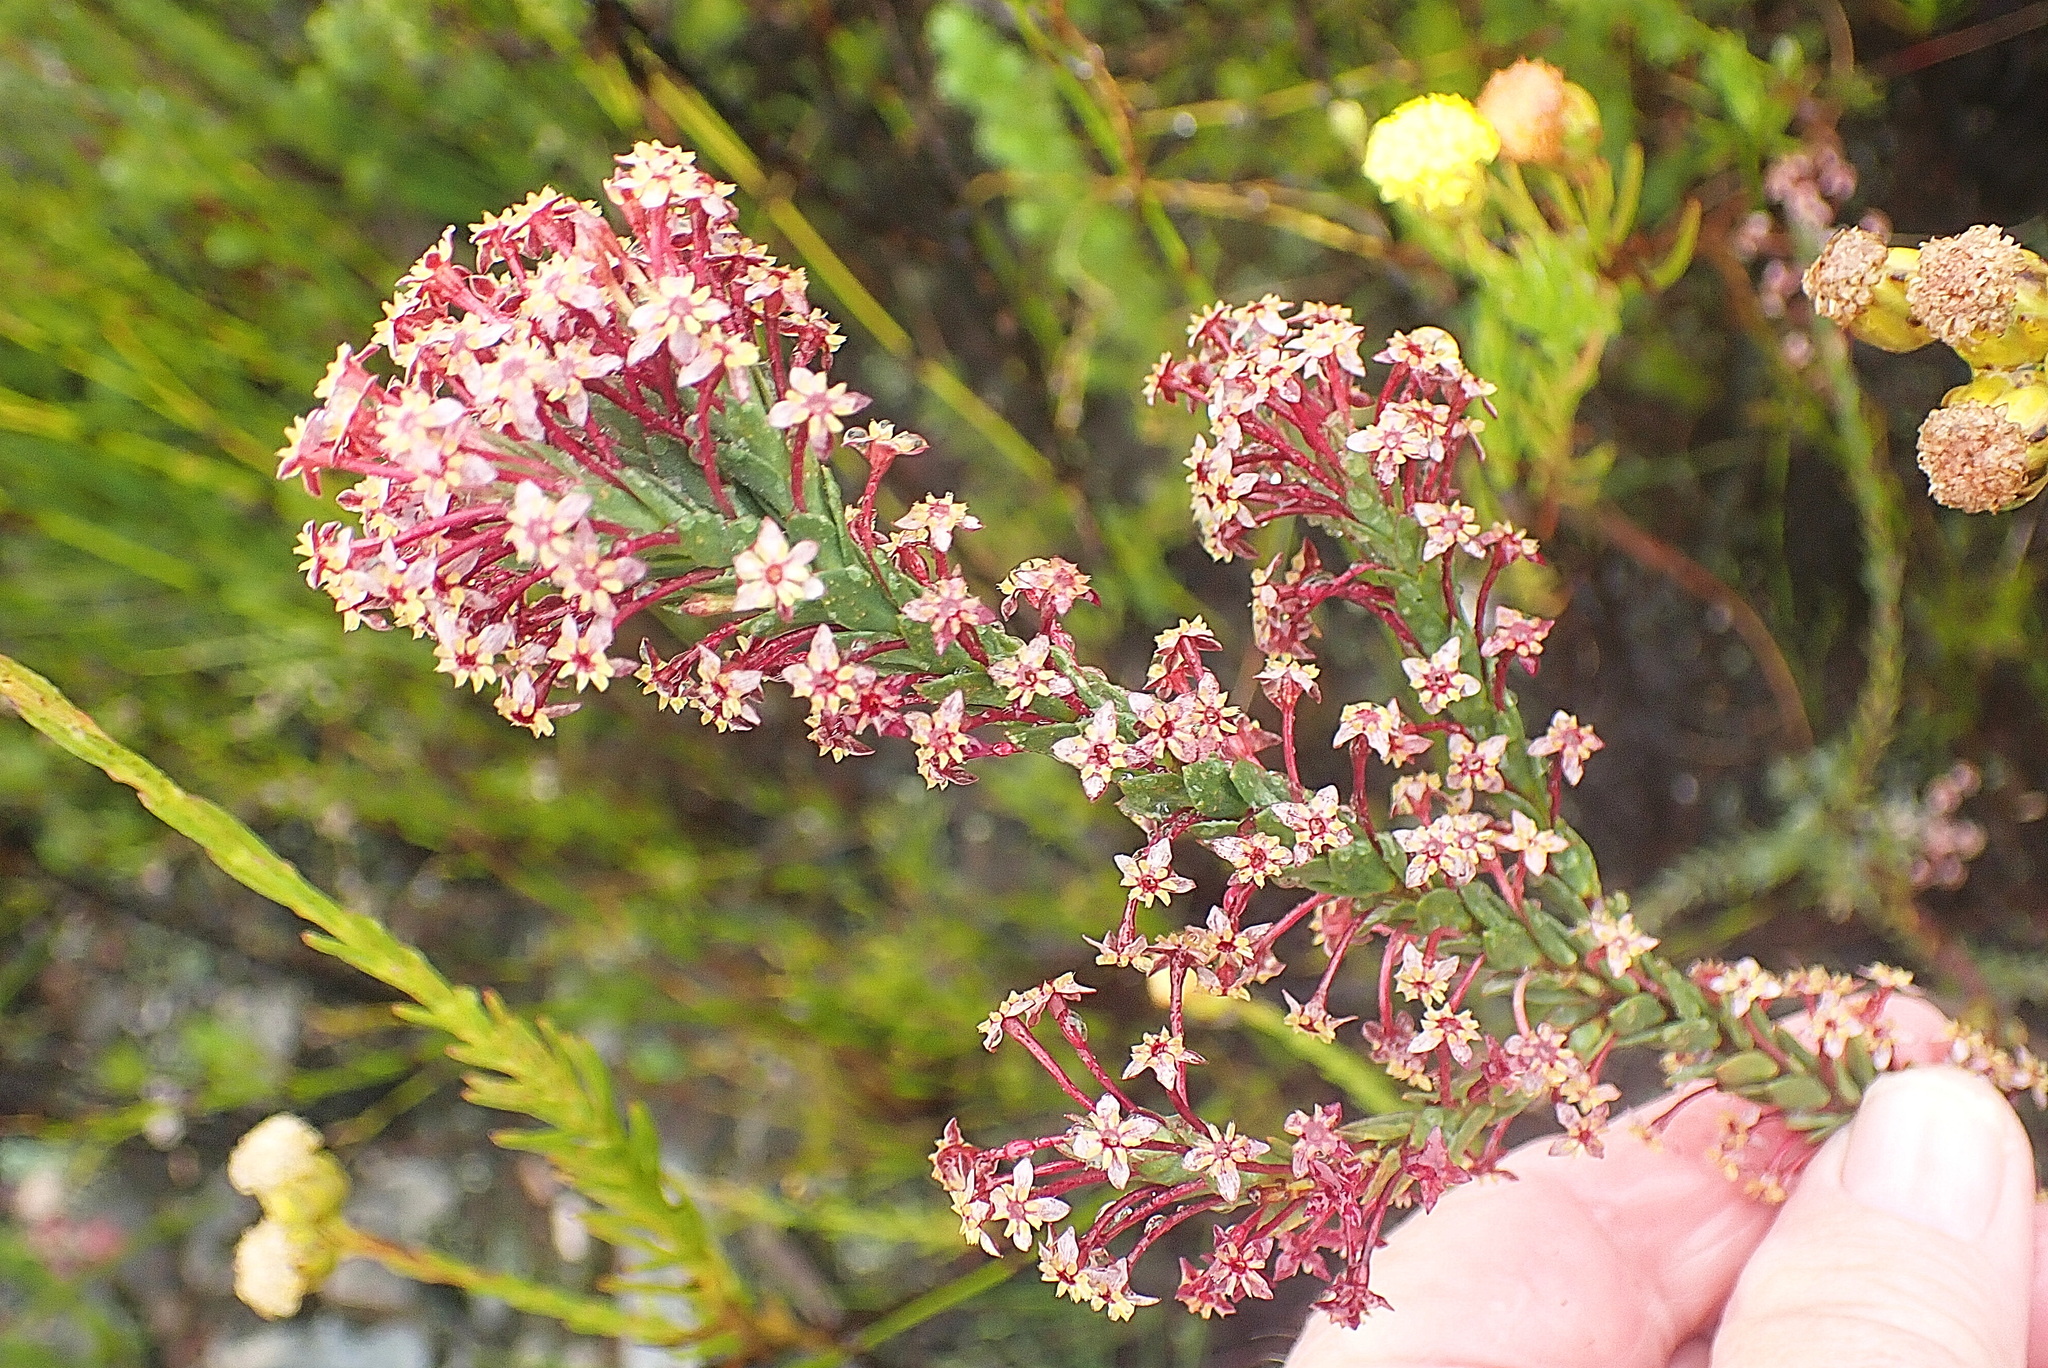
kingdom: Plantae
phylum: Tracheophyta
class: Magnoliopsida
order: Malvales
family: Thymelaeaceae
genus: Struthiola
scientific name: Struthiola macowanii
